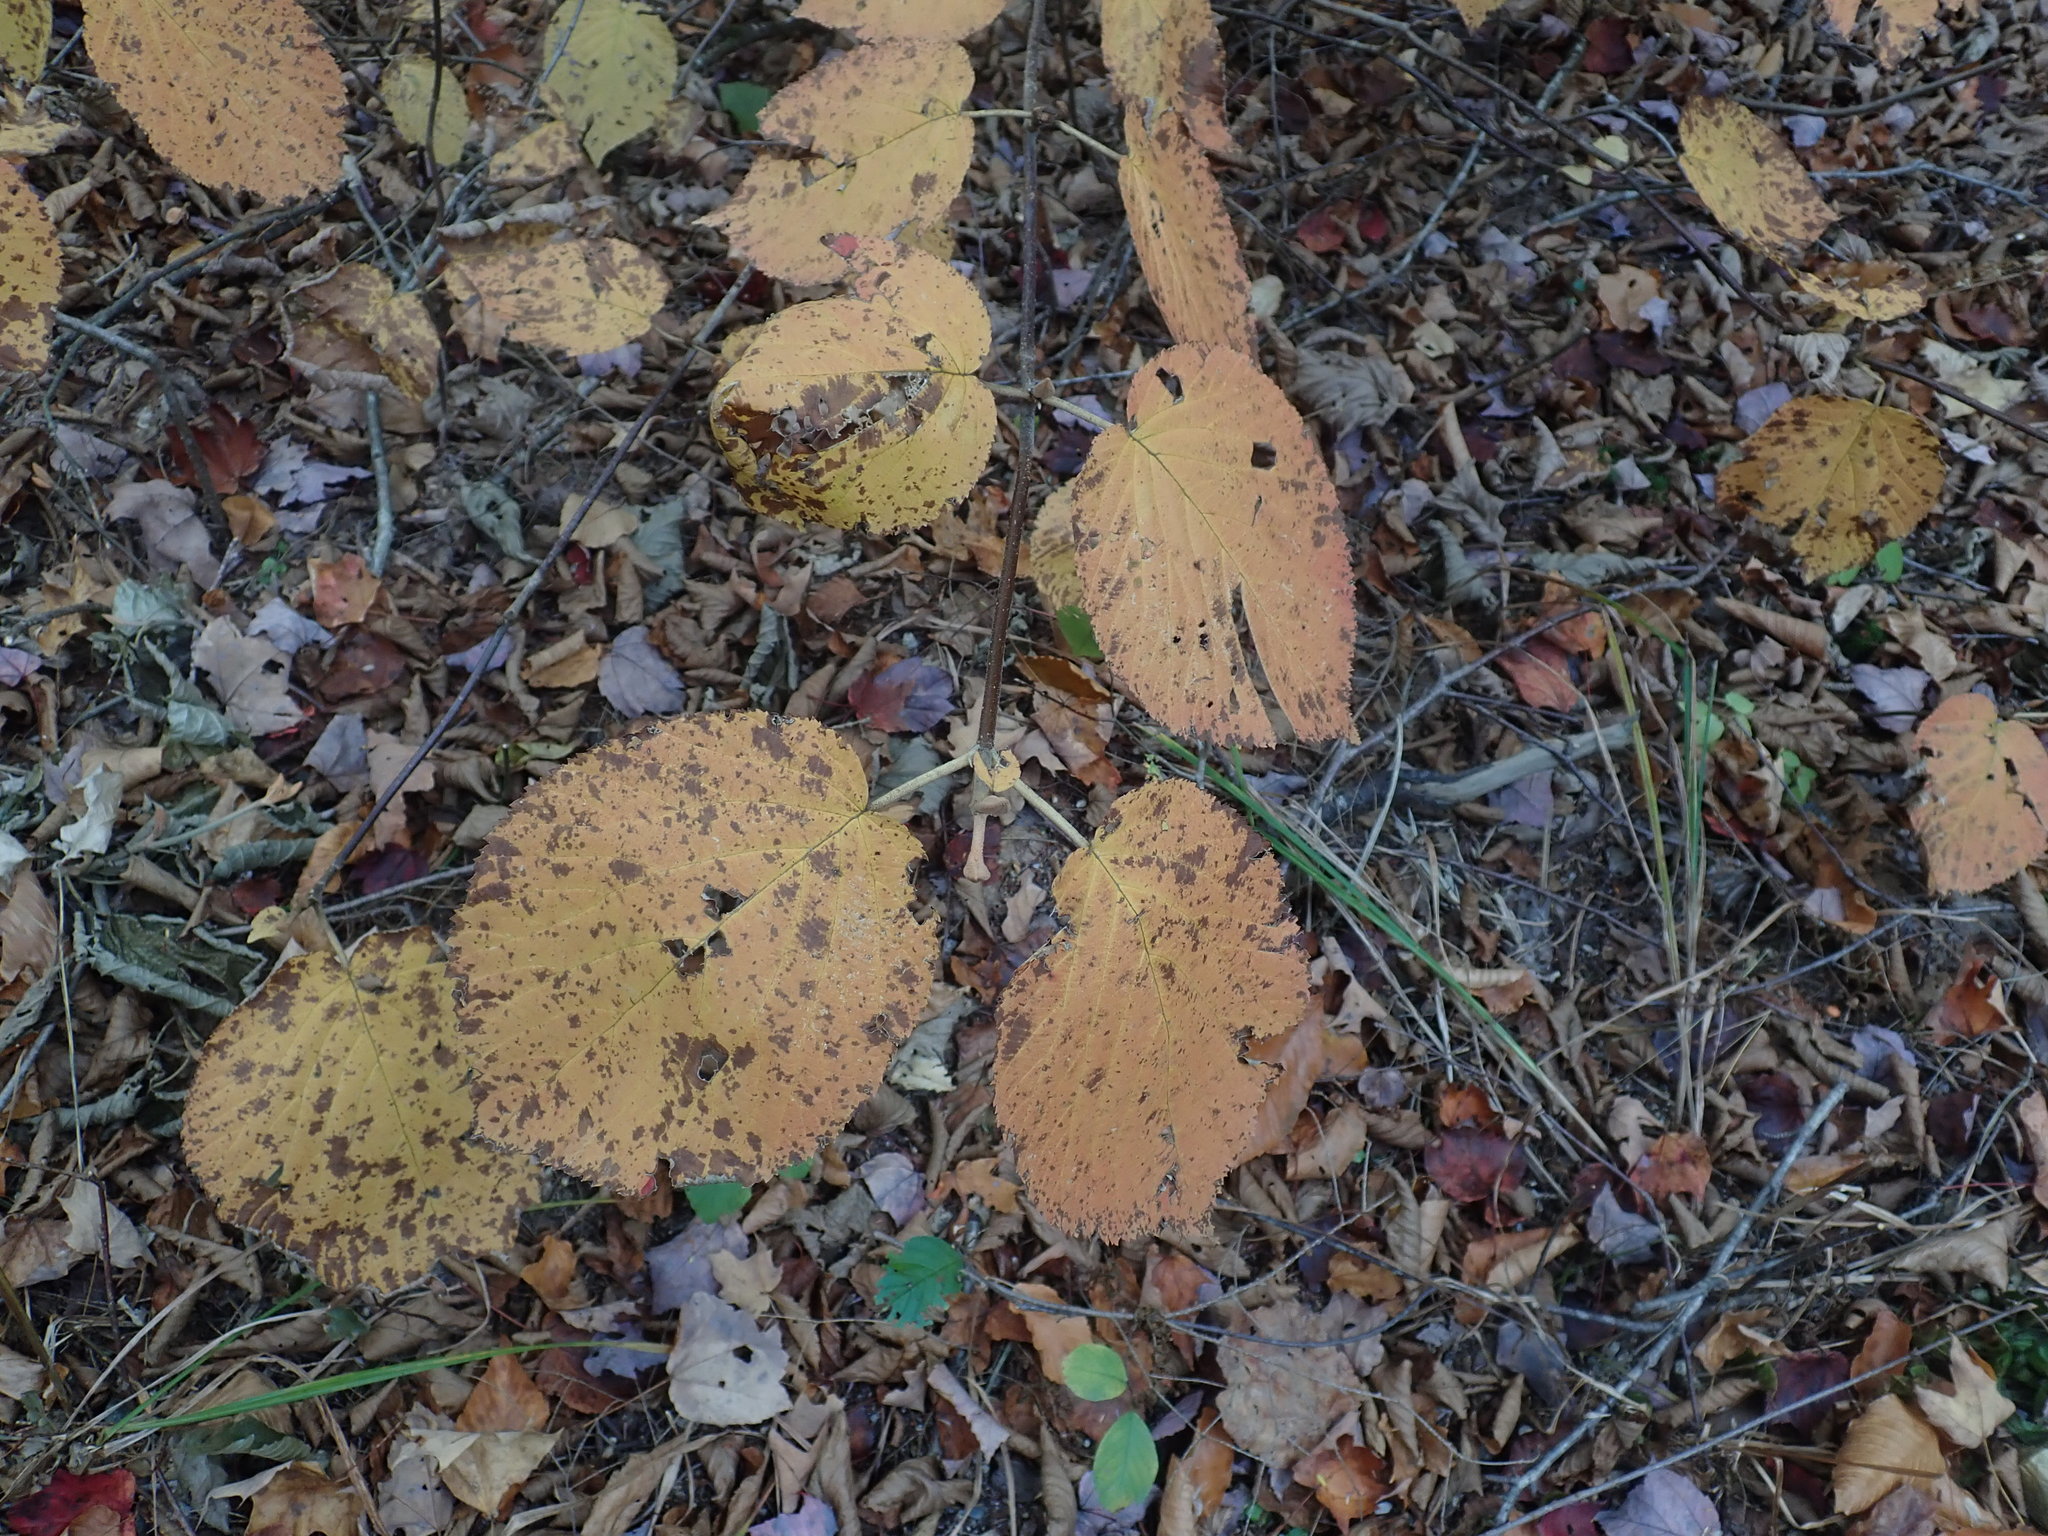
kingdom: Plantae
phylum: Tracheophyta
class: Magnoliopsida
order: Dipsacales
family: Viburnaceae
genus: Viburnum
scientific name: Viburnum lantanoides
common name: Hobblebush
